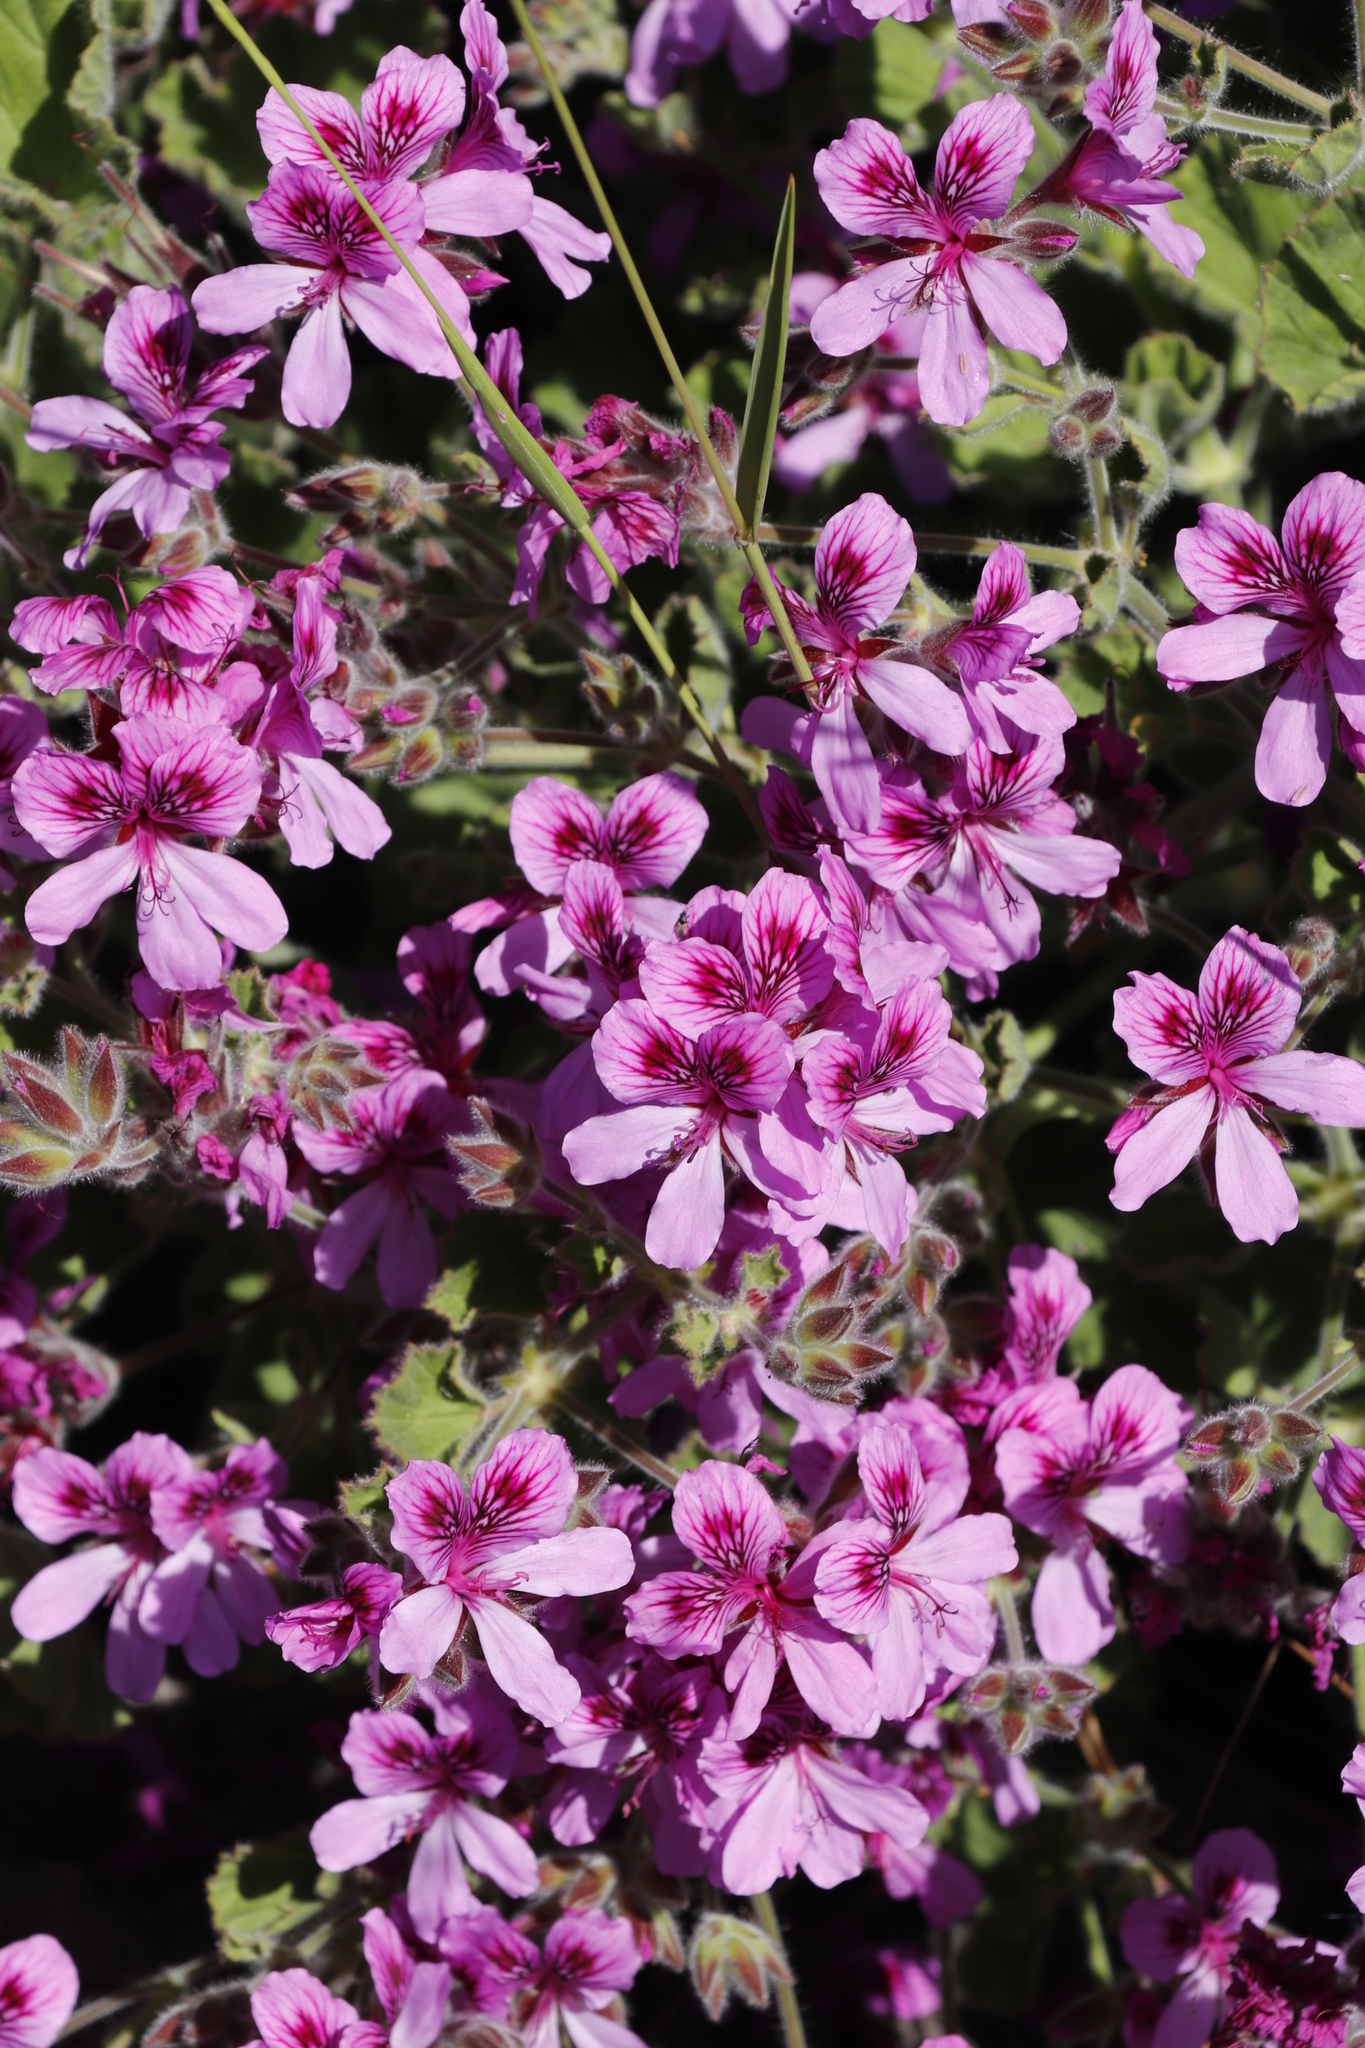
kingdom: Plantae
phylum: Tracheophyta
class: Magnoliopsida
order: Geraniales
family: Geraniaceae
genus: Pelargonium
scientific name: Pelargonium cucullatum
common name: Tree pelargonium
